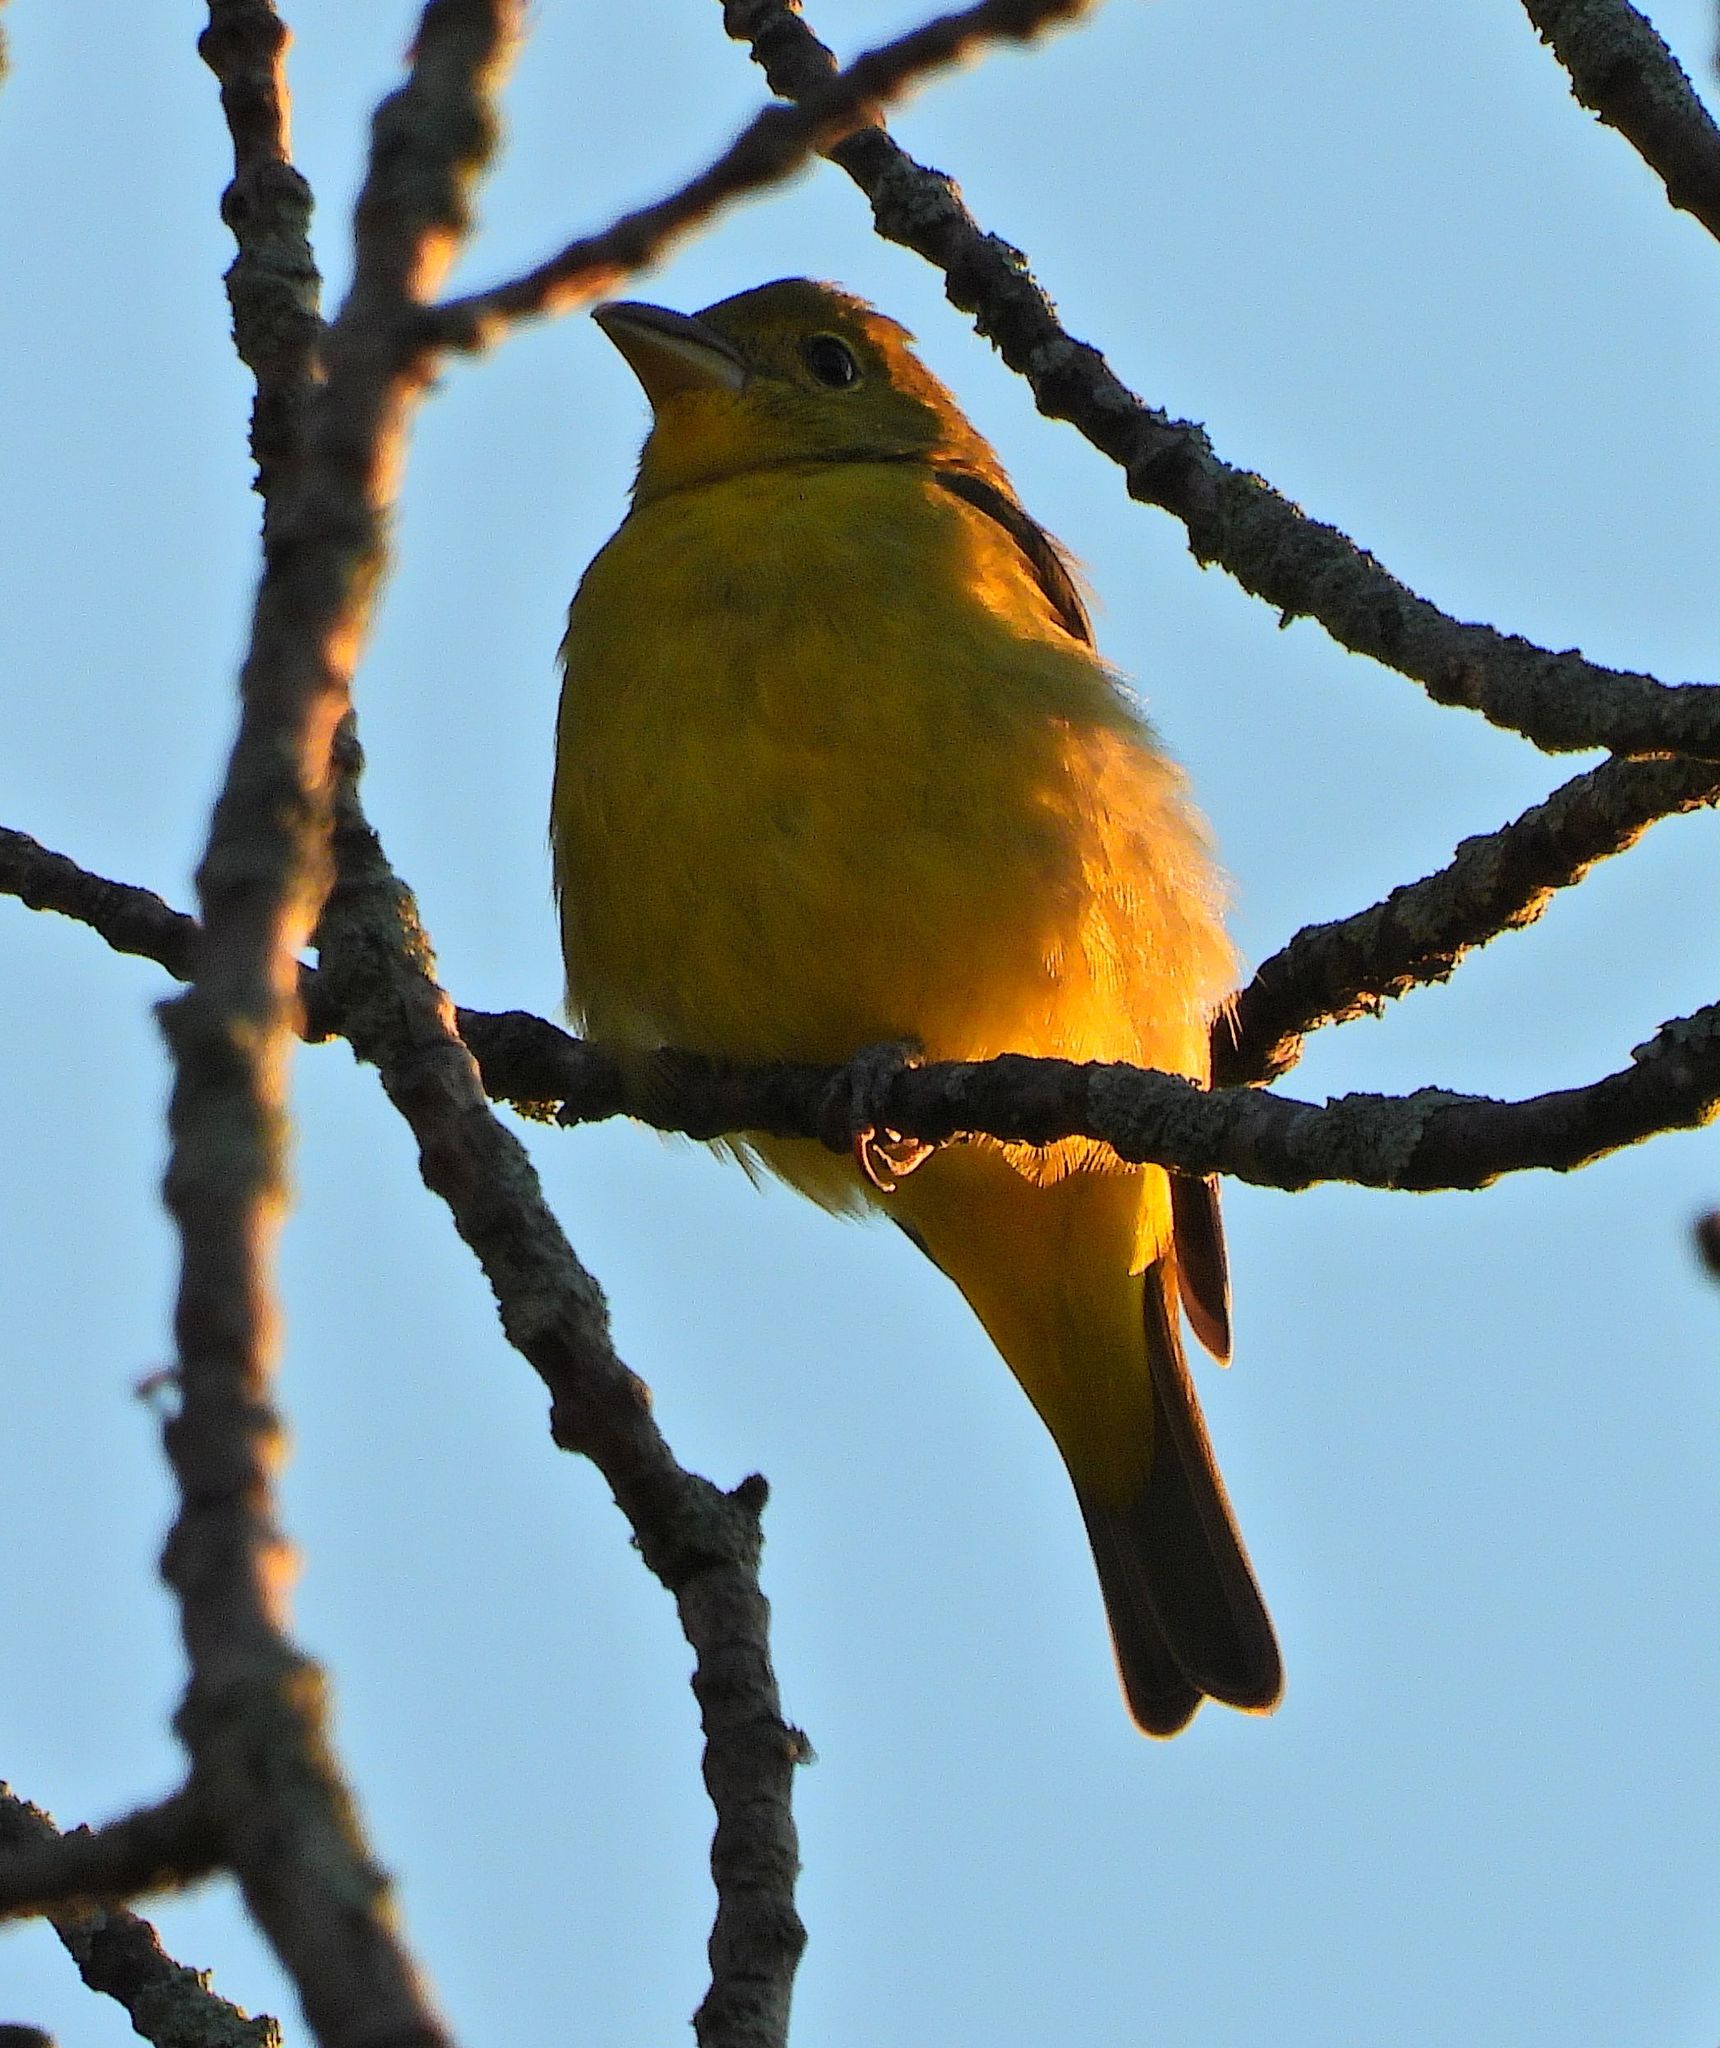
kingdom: Animalia
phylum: Chordata
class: Aves
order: Passeriformes
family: Cardinalidae
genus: Piranga
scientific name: Piranga olivacea
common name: Scarlet tanager
